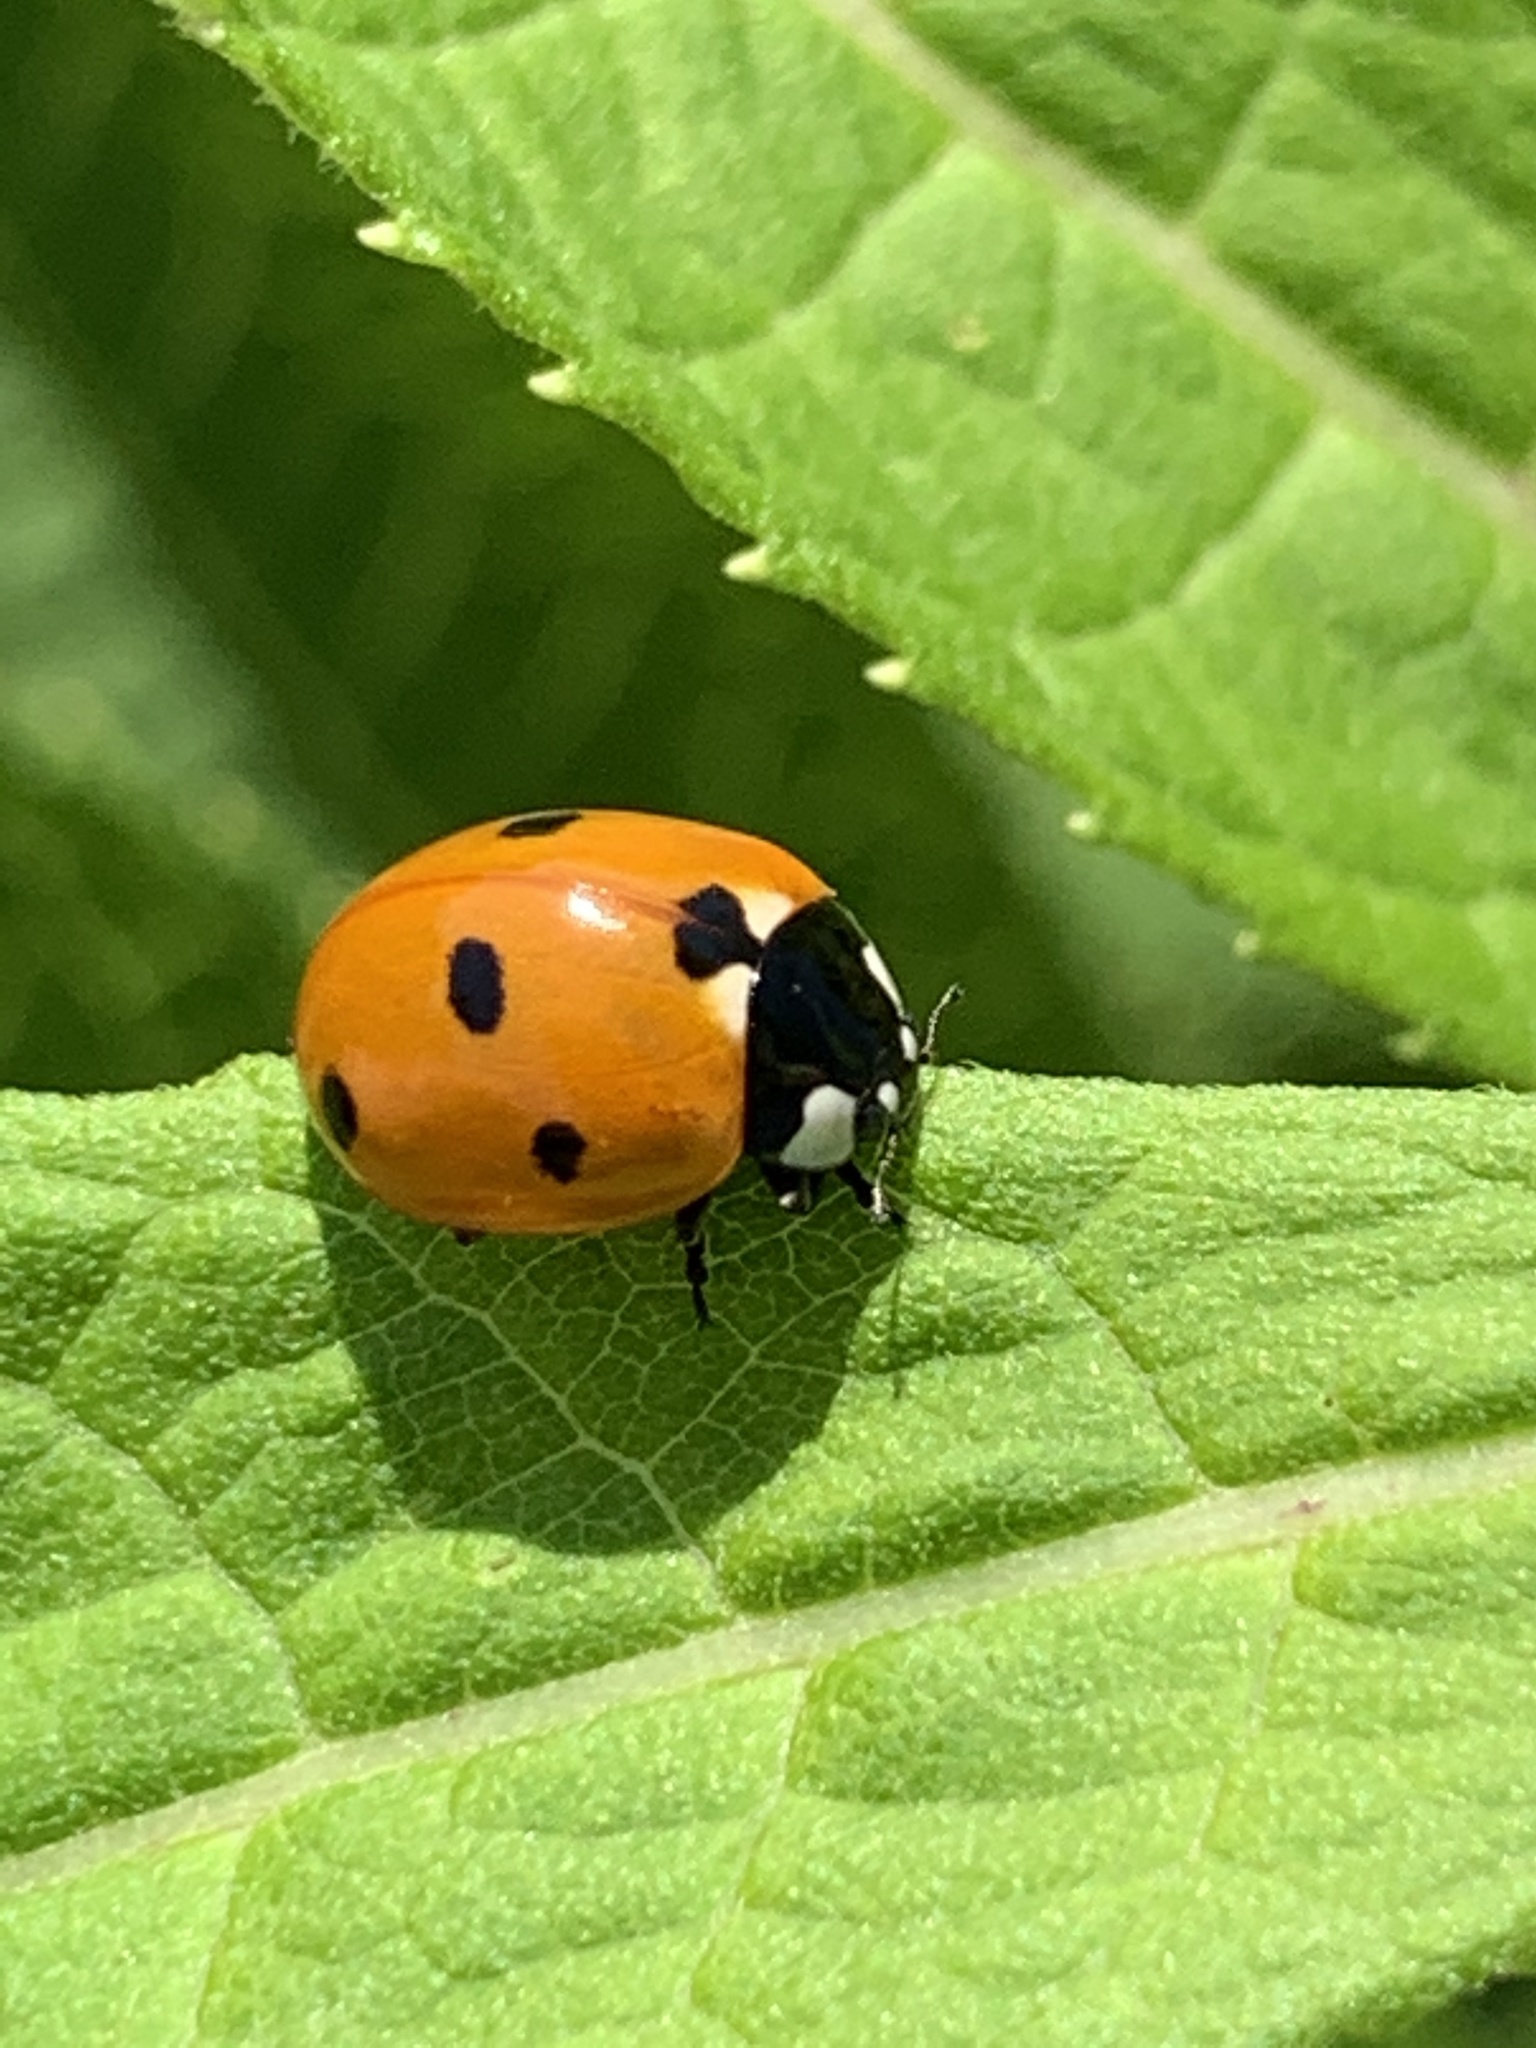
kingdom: Animalia
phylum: Arthropoda
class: Insecta
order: Coleoptera
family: Coccinellidae
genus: Coccinella
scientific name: Coccinella septempunctata
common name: Sevenspotted lady beetle
